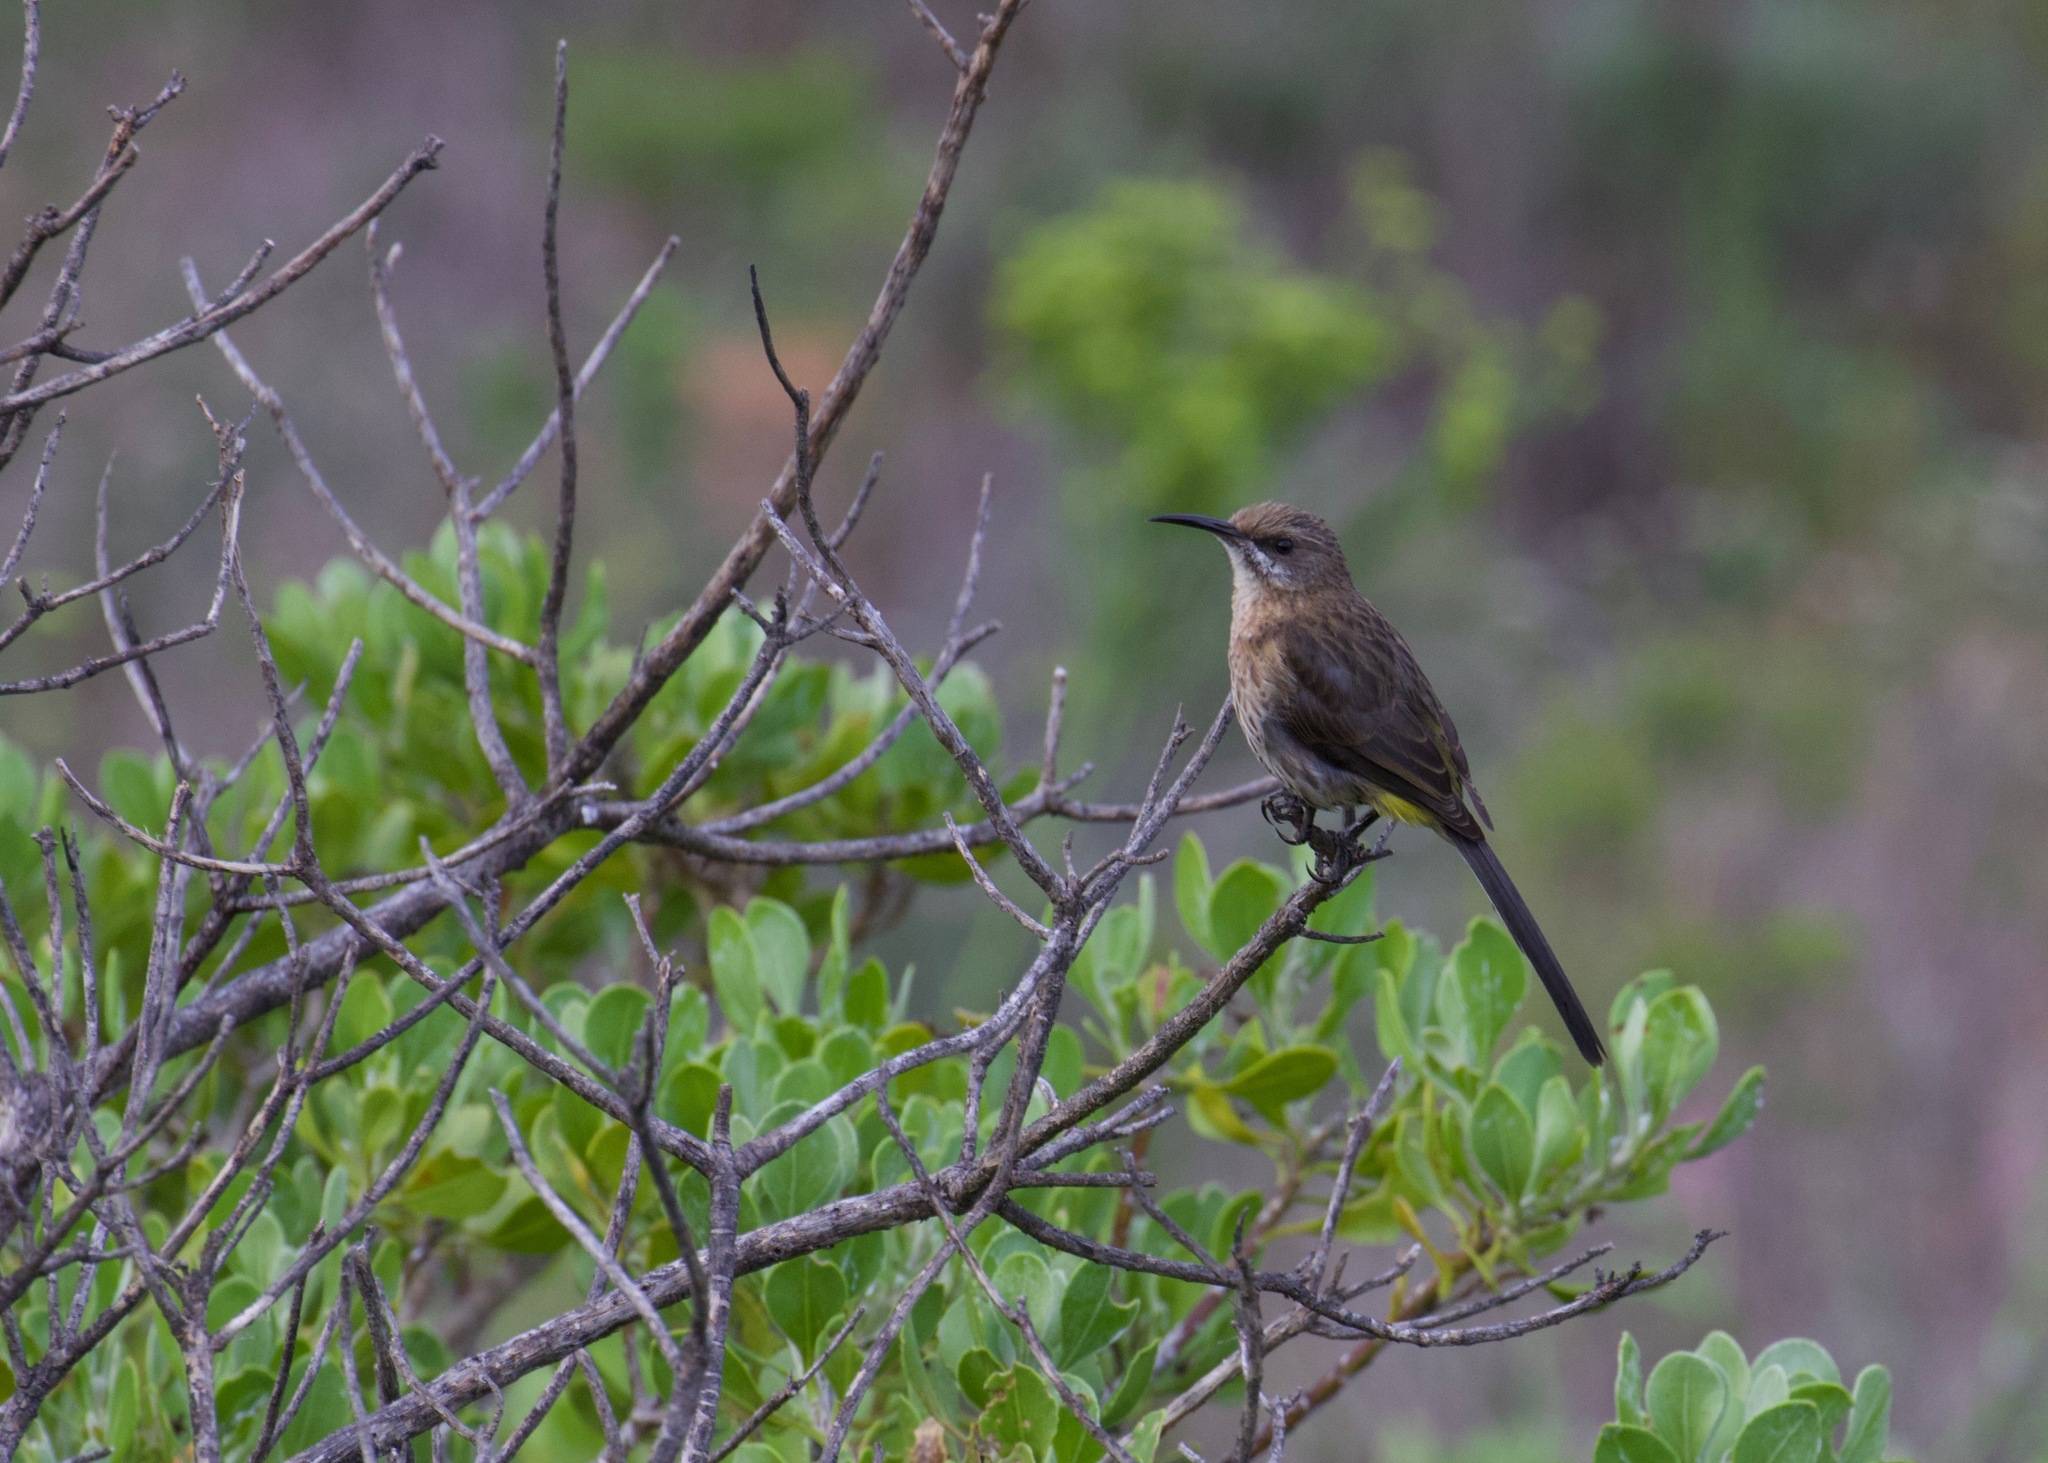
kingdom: Animalia
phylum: Chordata
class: Aves
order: Passeriformes
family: Promeropidae
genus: Promerops
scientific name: Promerops cafer
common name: Cape sugarbird
